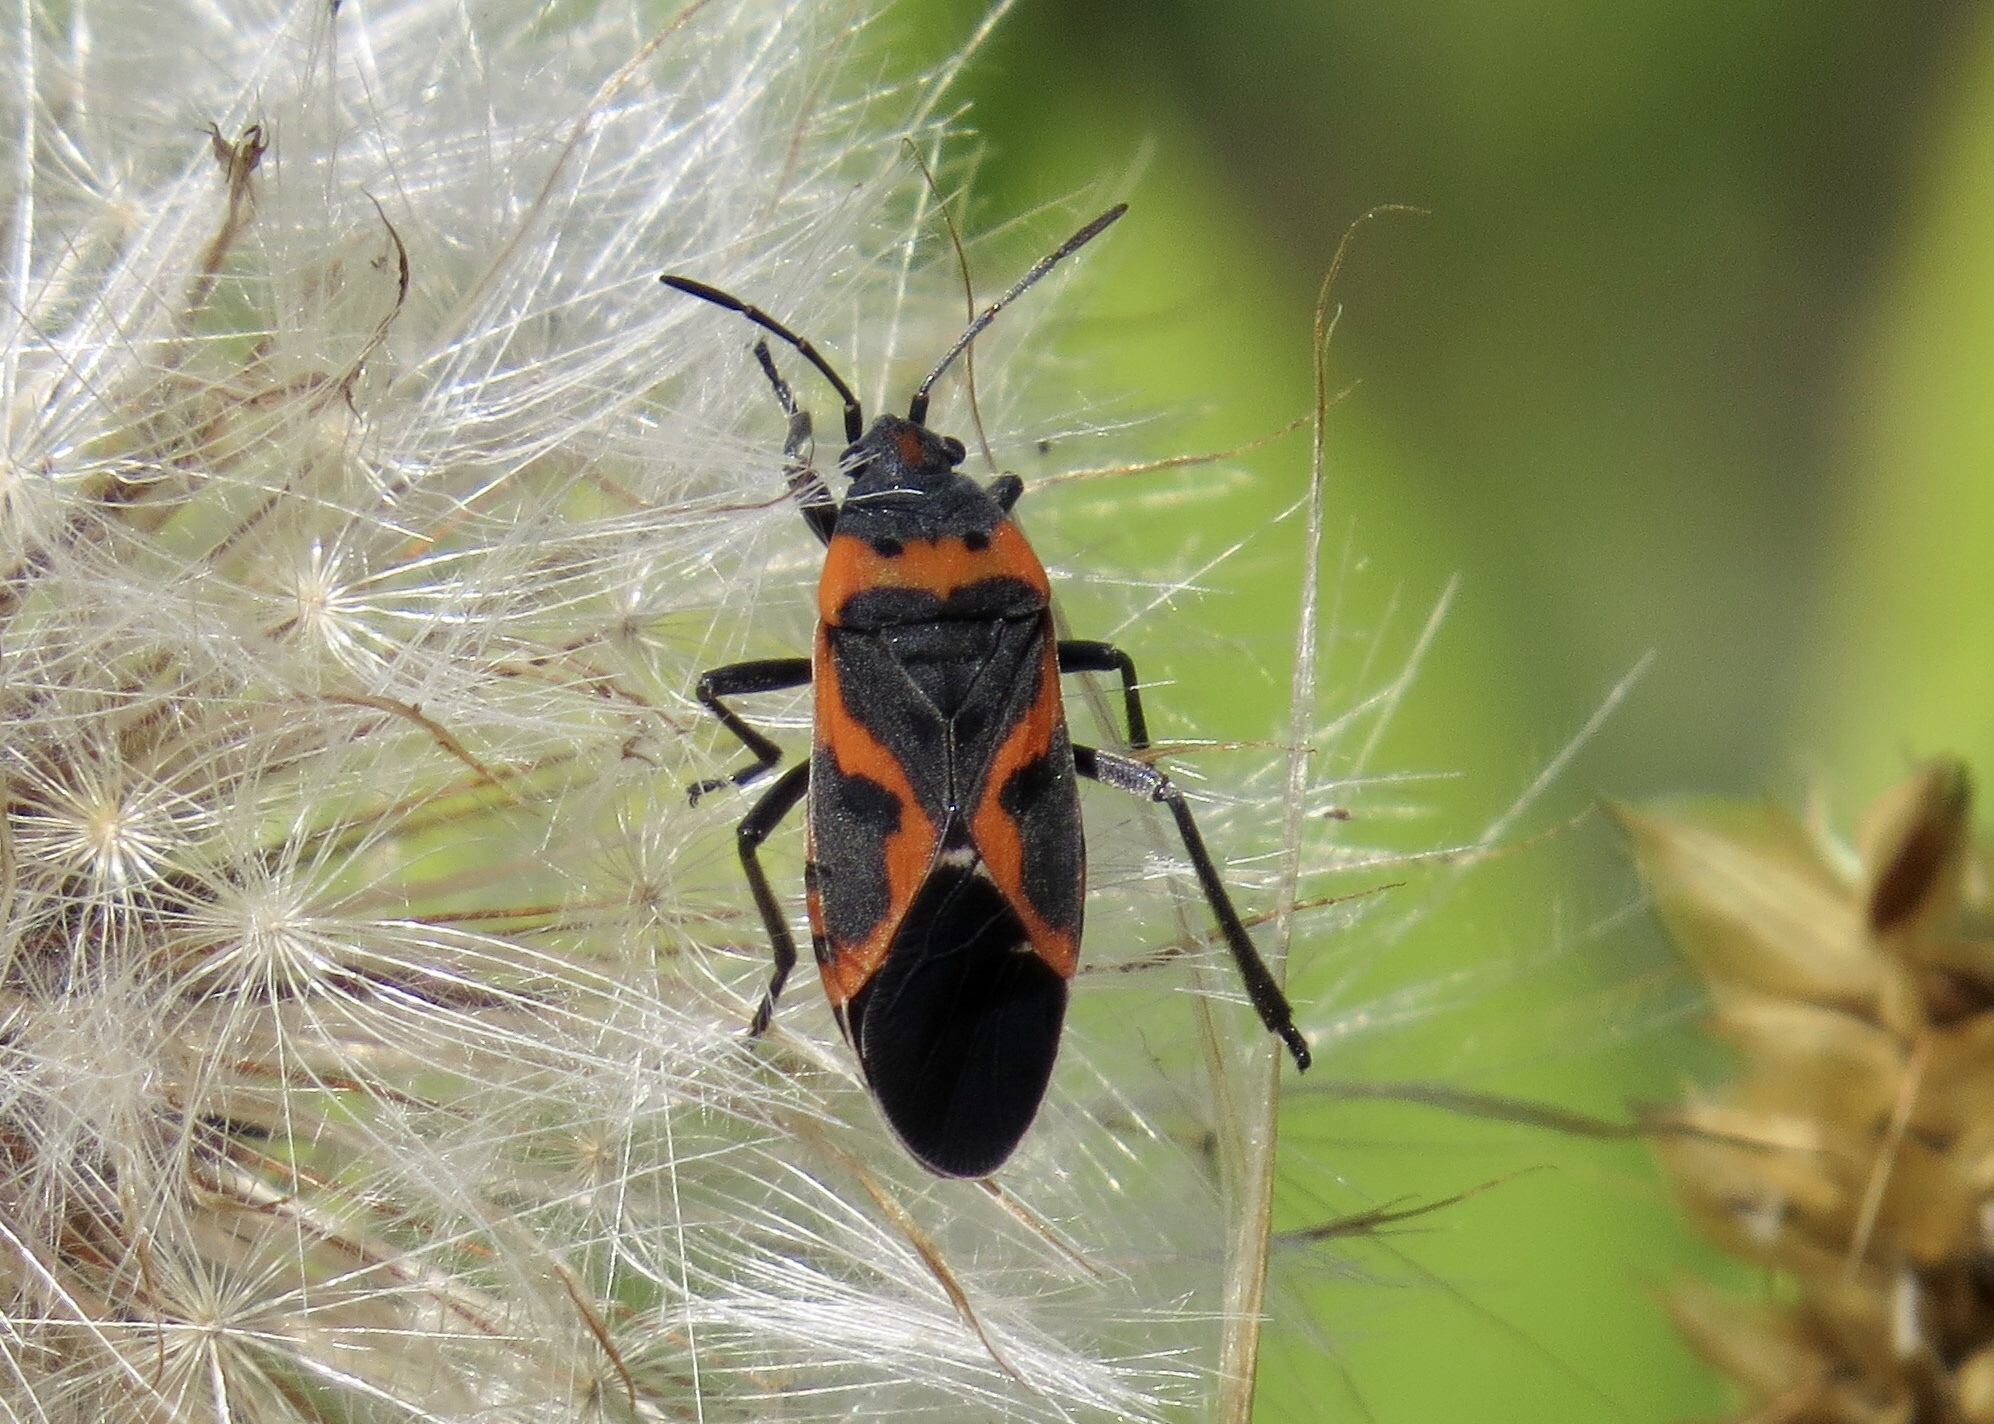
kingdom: Animalia
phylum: Arthropoda
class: Insecta
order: Hemiptera
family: Lygaeidae
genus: Lygaeus
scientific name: Lygaeus kalmii
